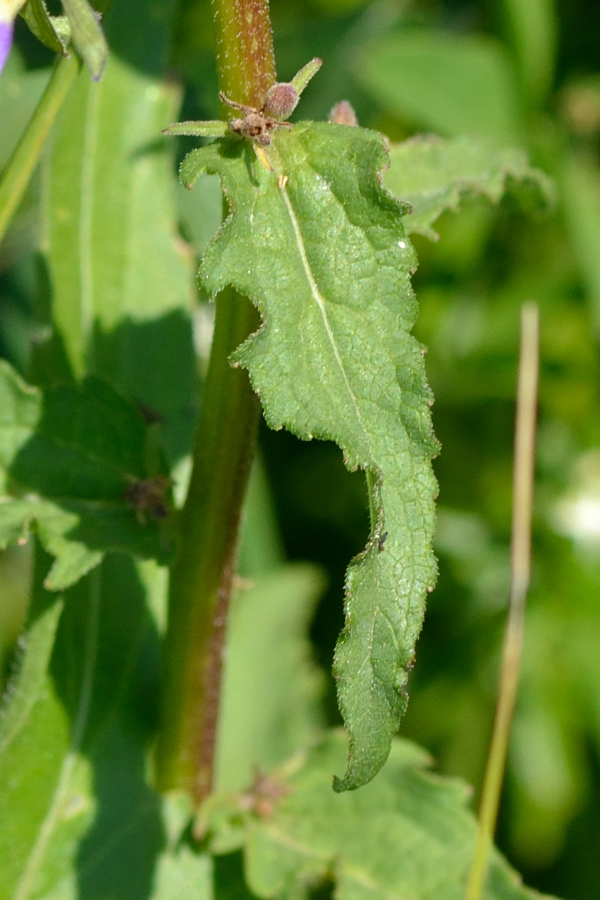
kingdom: Plantae
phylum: Tracheophyta
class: Magnoliopsida
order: Asterales
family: Campanulaceae
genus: Campanula
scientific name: Campanula rapunculoides
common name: Creeping bellflower
